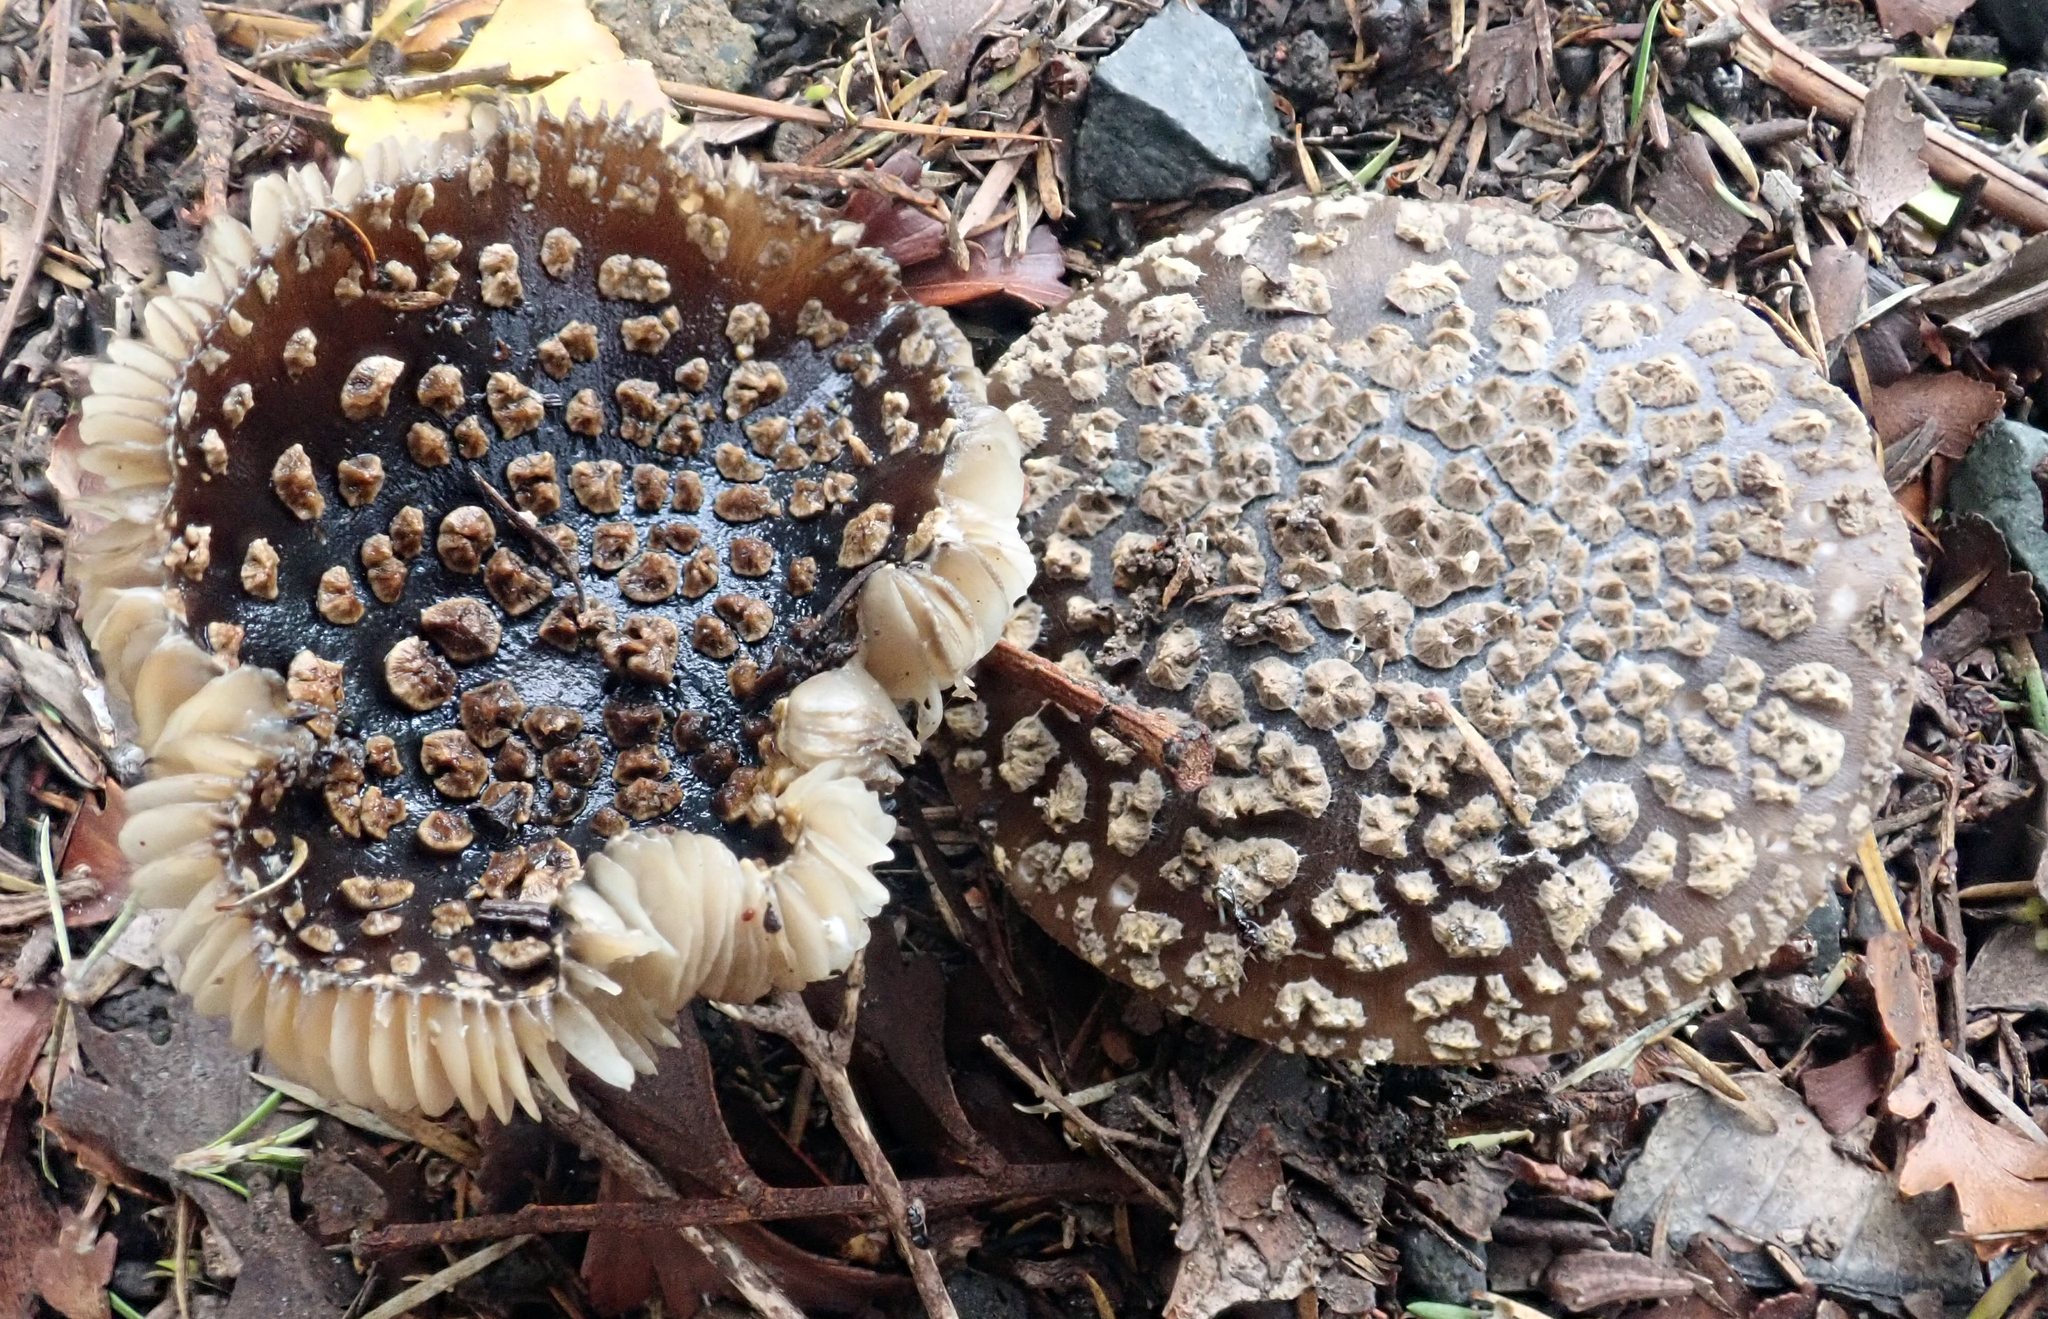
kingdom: Fungi
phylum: Basidiomycota
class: Agaricomycetes
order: Agaricales
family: Amanitaceae
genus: Amanita
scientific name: Amanita nothofagi
